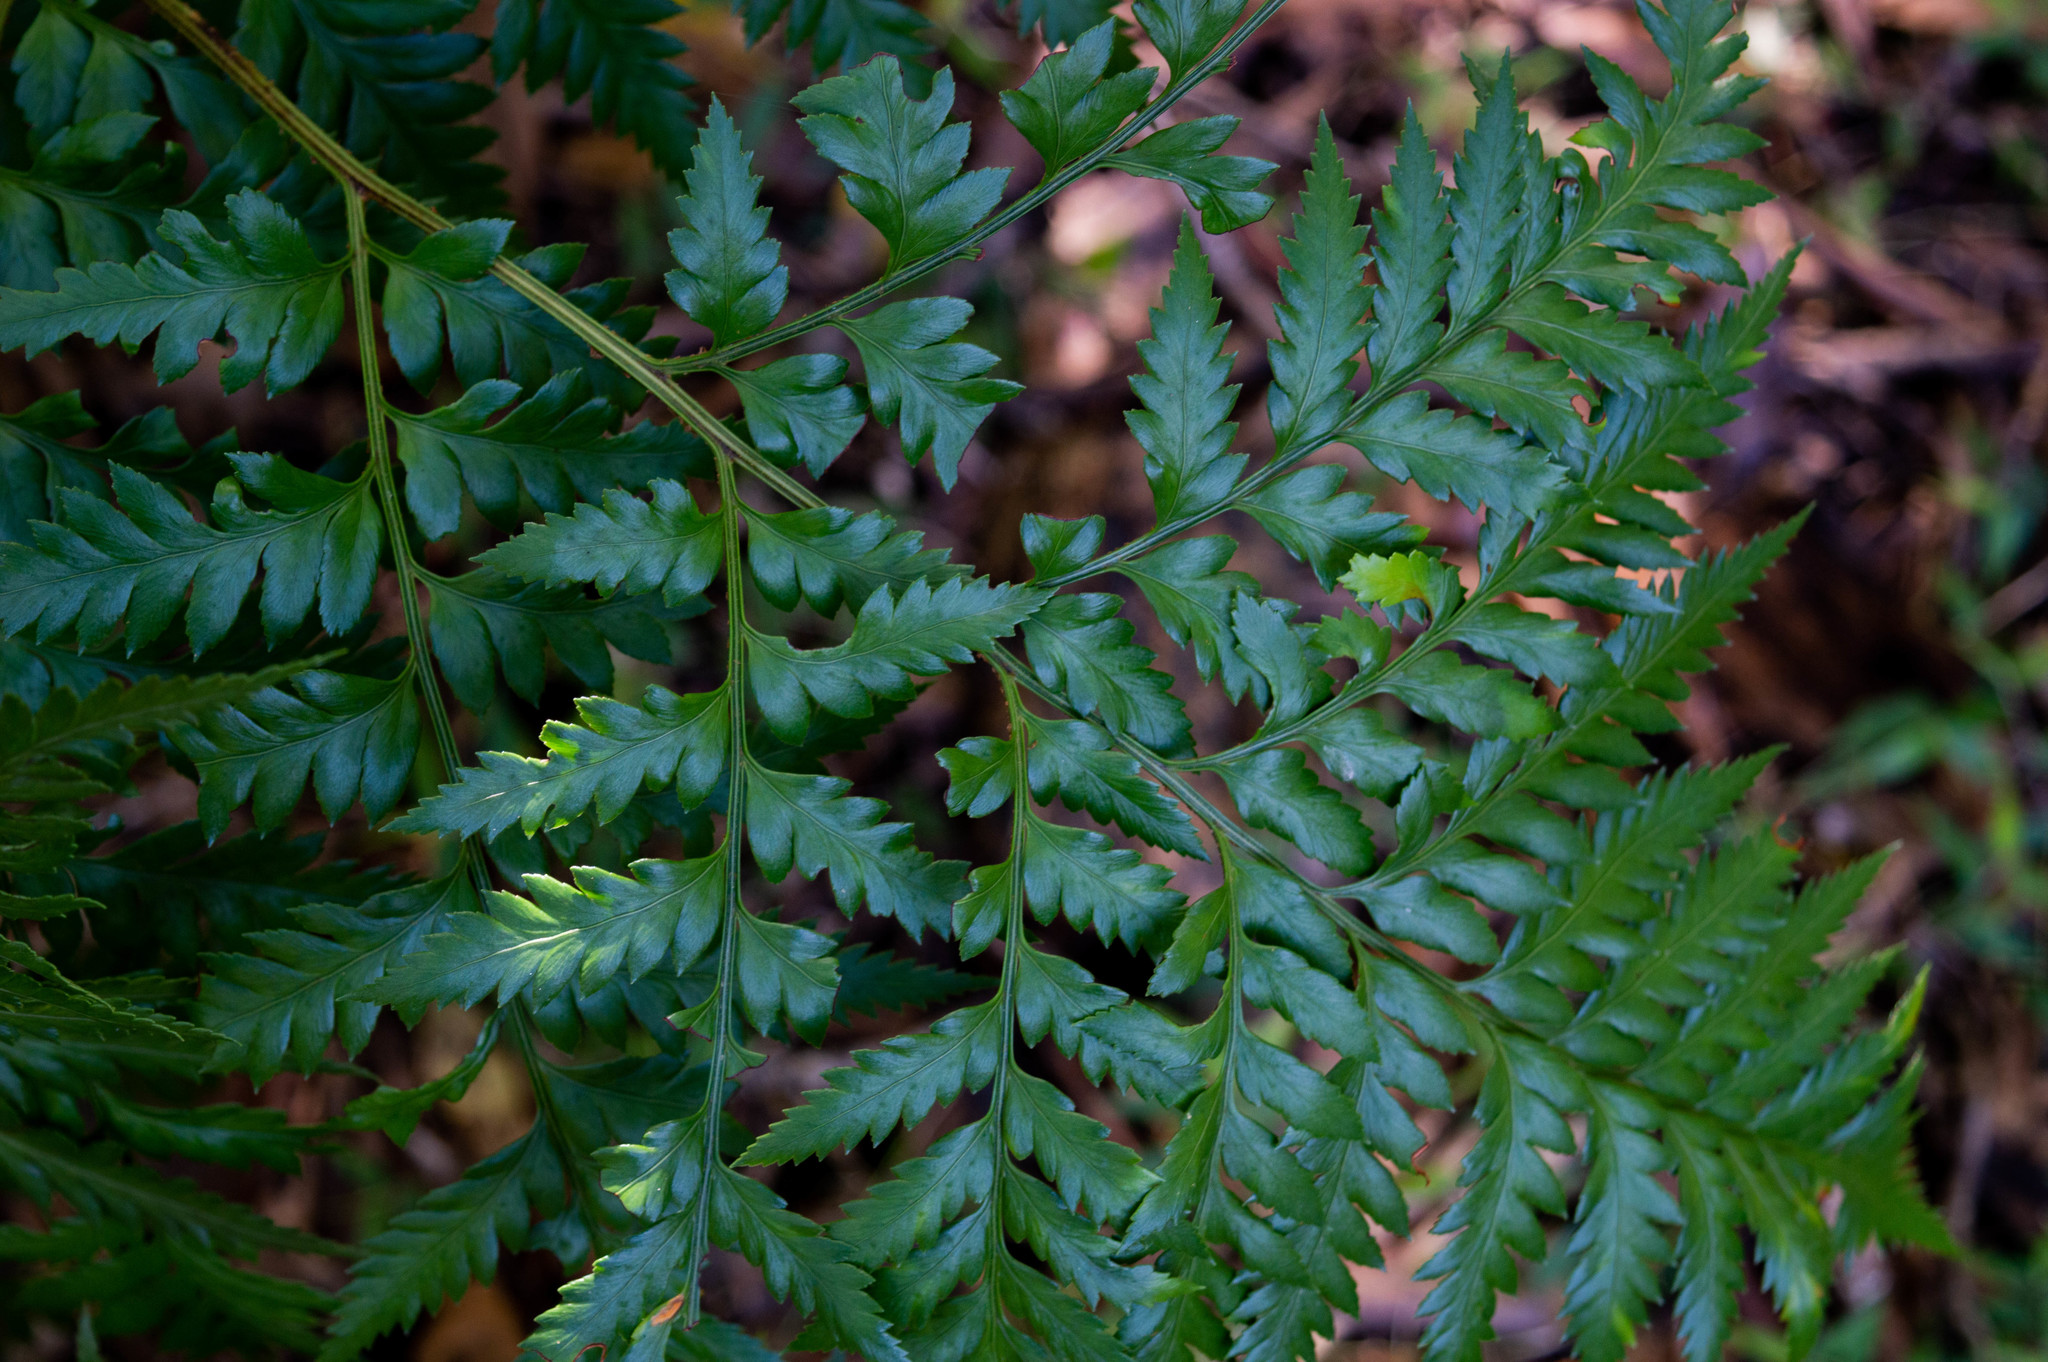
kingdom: Plantae
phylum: Tracheophyta
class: Polypodiopsida
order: Polypodiales
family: Dryopteridaceae
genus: Rumohra
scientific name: Rumohra adiantiformis
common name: Leather fern
